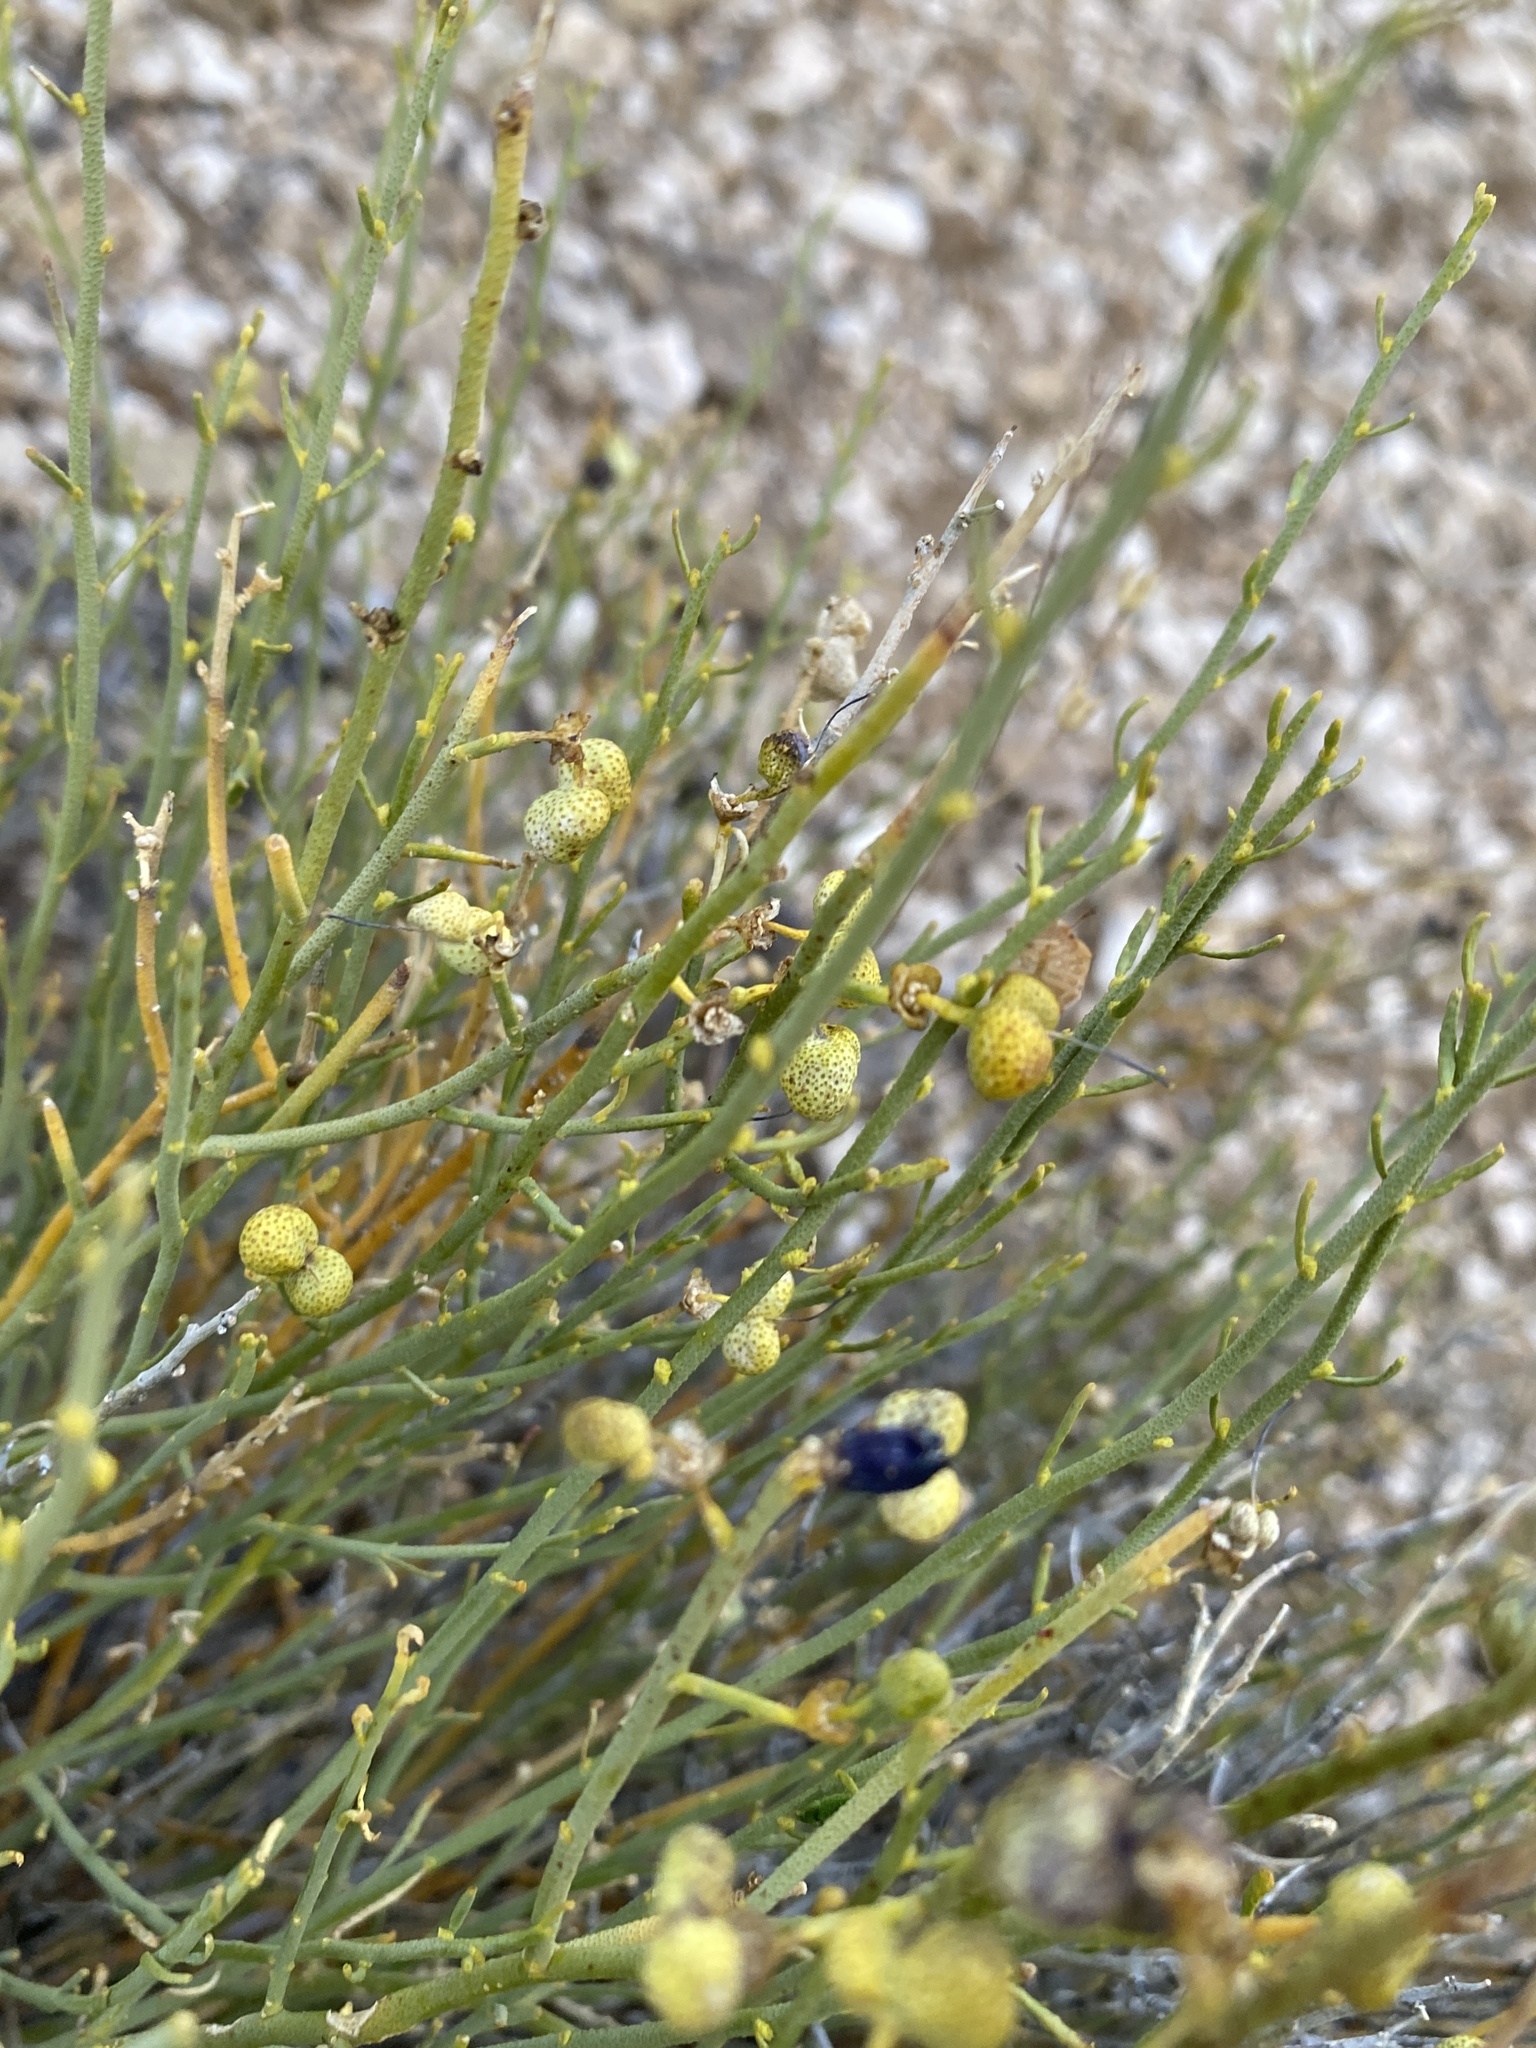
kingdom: Plantae
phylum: Tracheophyta
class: Magnoliopsida
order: Sapindales
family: Rutaceae
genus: Thamnosma
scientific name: Thamnosma montana
